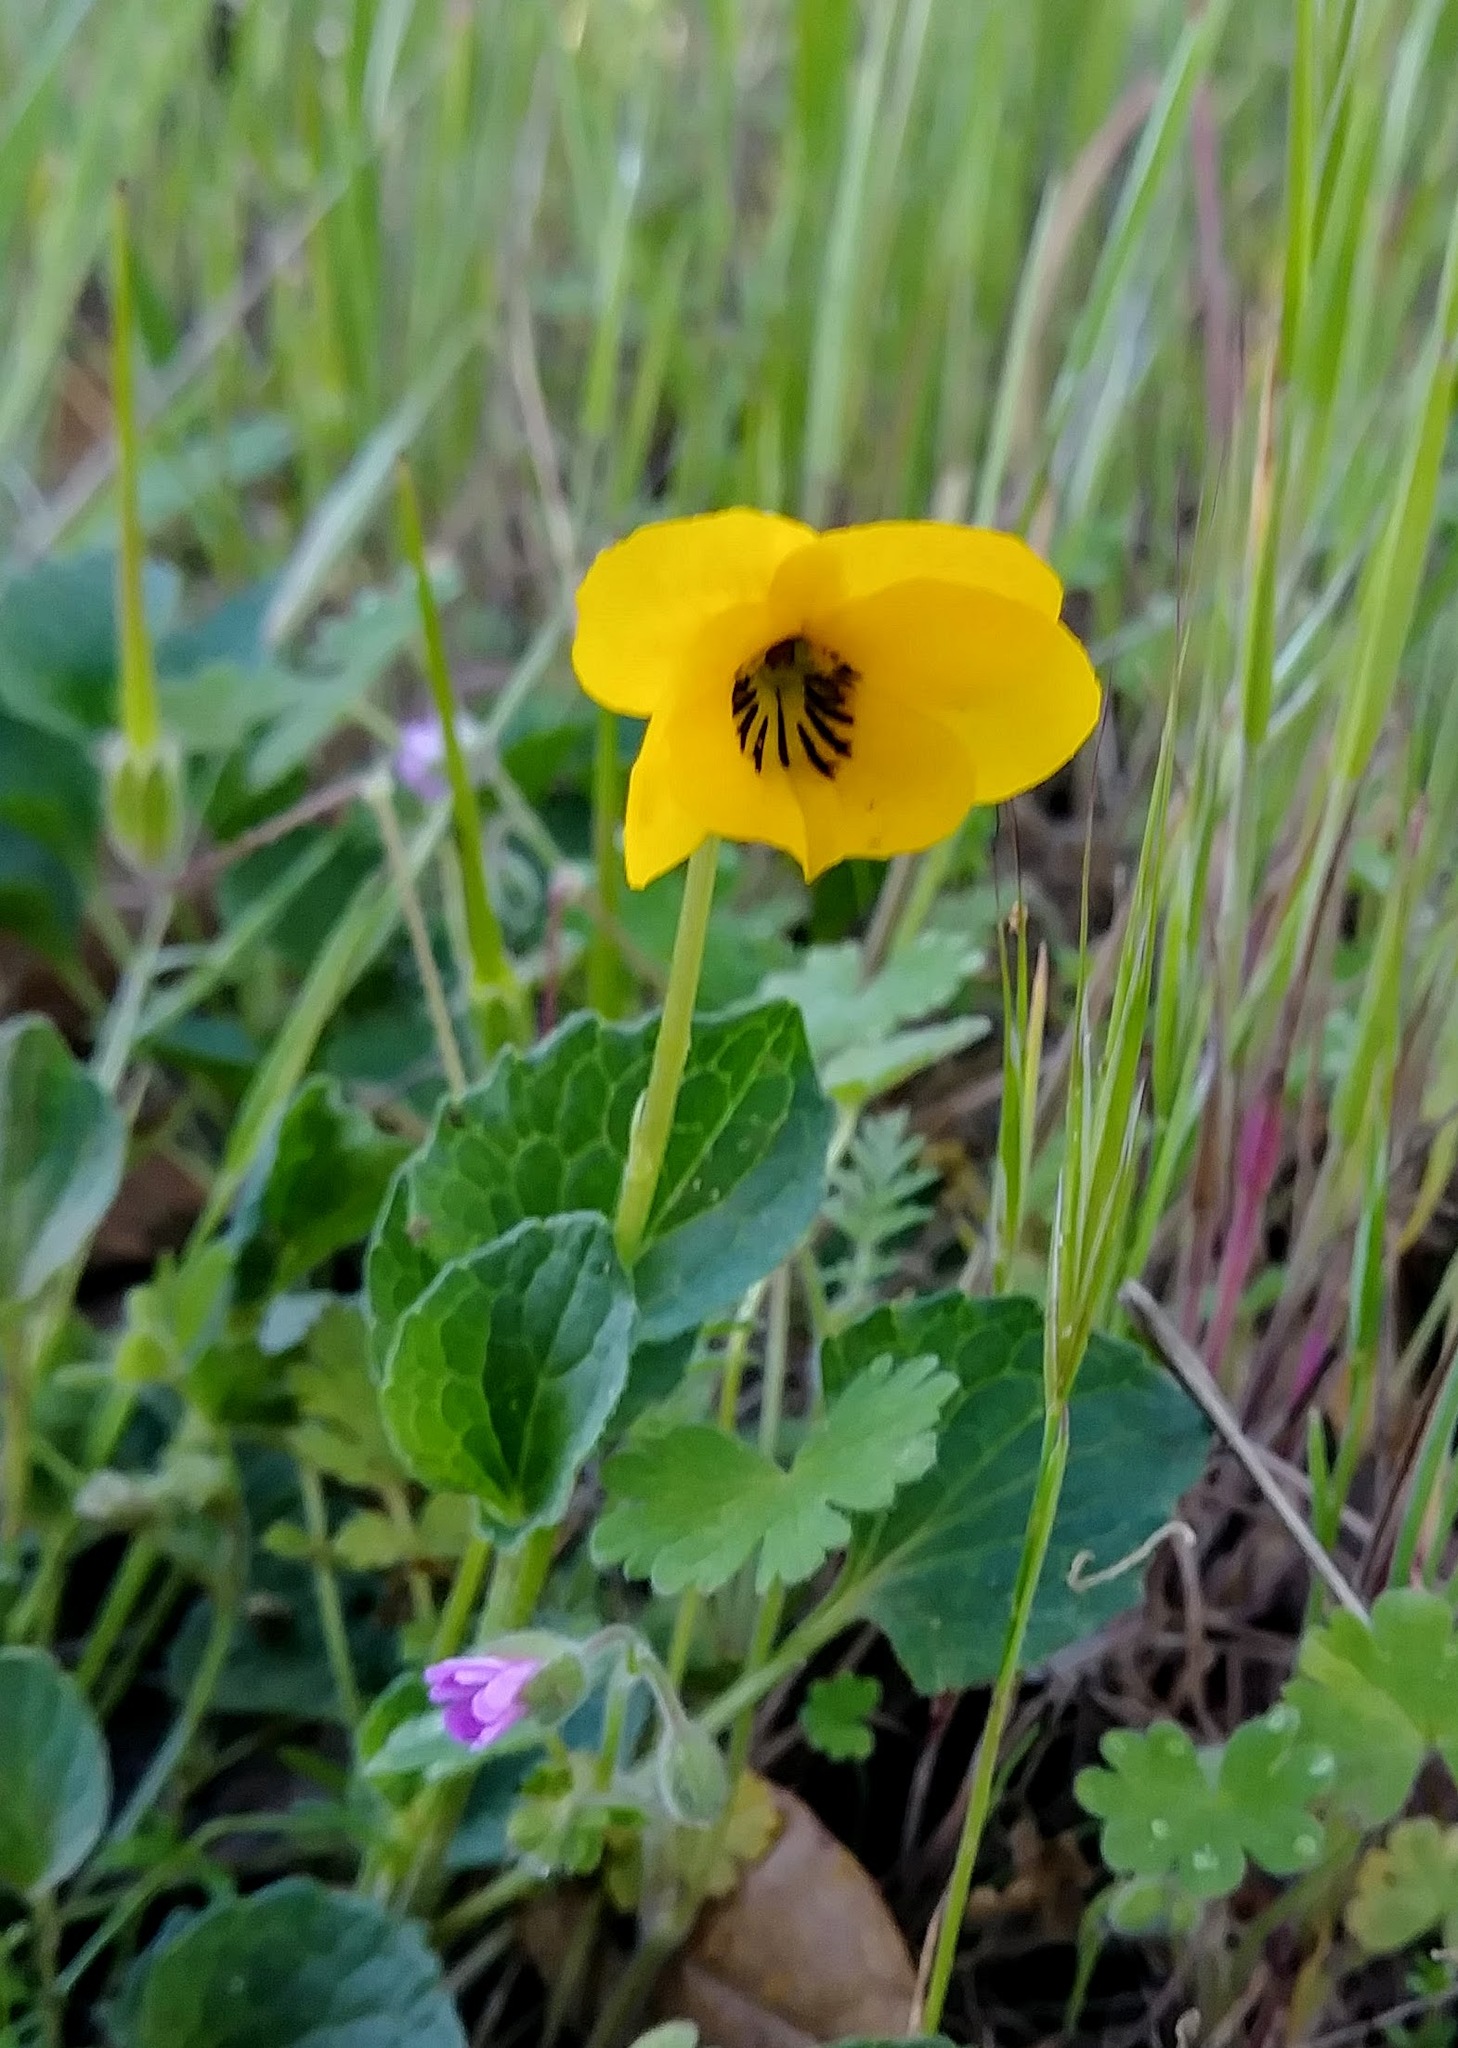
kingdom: Plantae
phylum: Tracheophyta
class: Magnoliopsida
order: Malpighiales
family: Violaceae
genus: Viola
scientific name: Viola pedunculata
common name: California golden violet
